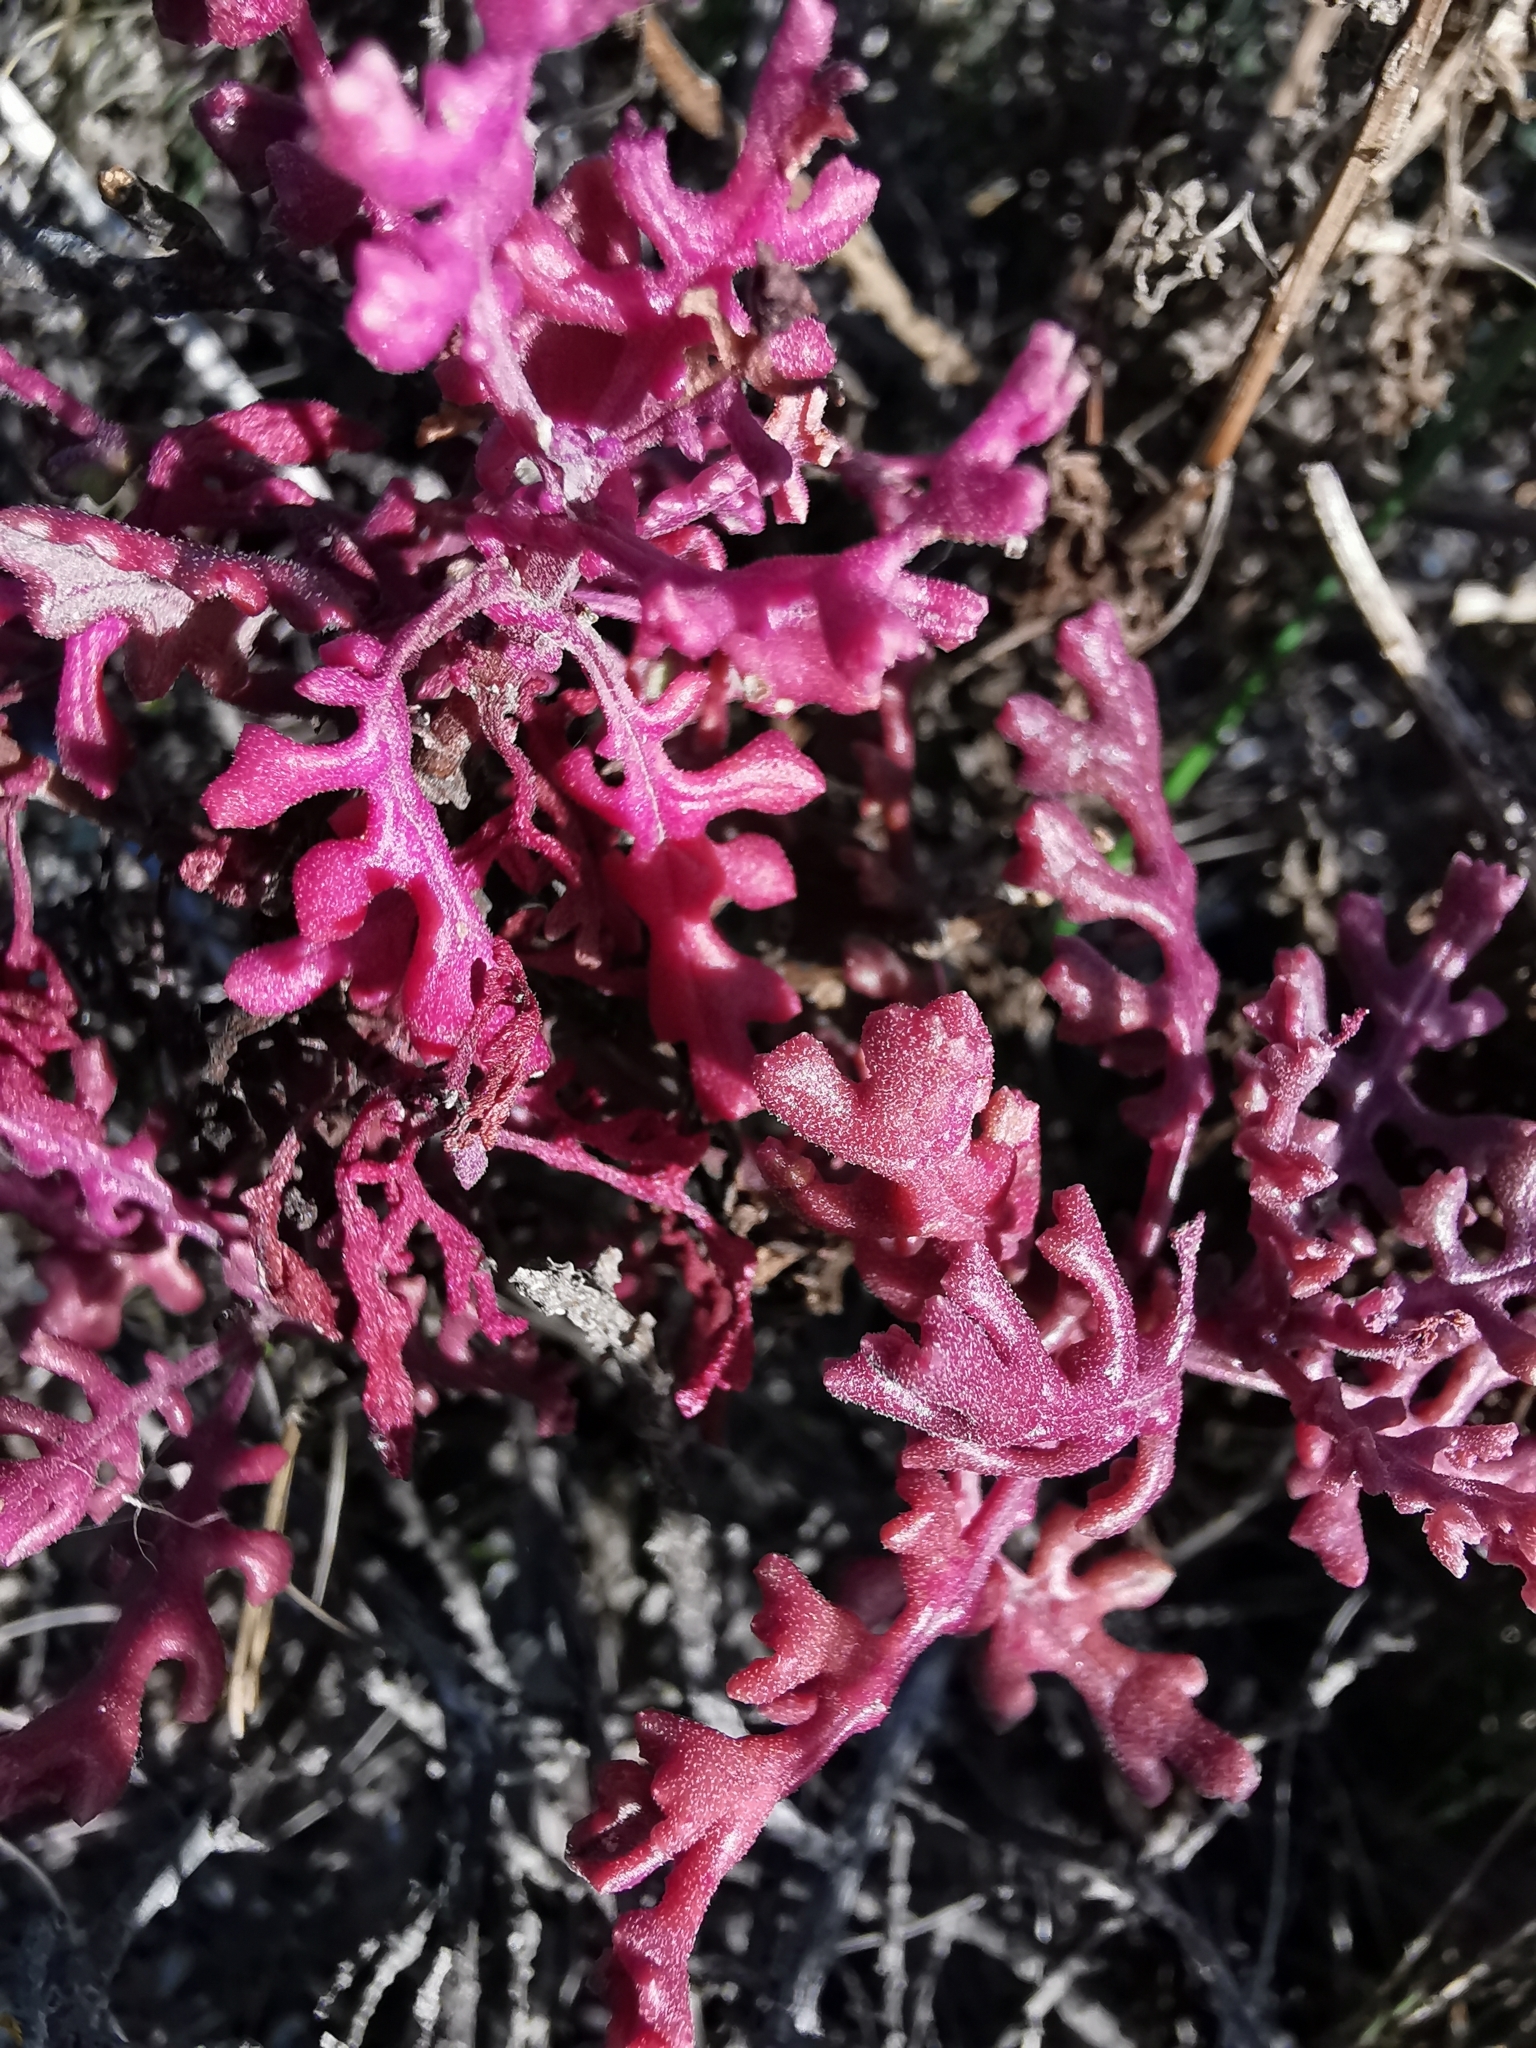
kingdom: Plantae
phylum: Tracheophyta
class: Magnoliopsida
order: Asterales
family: Asteraceae
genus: Senecio
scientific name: Senecio elegans
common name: Purple groundsel
